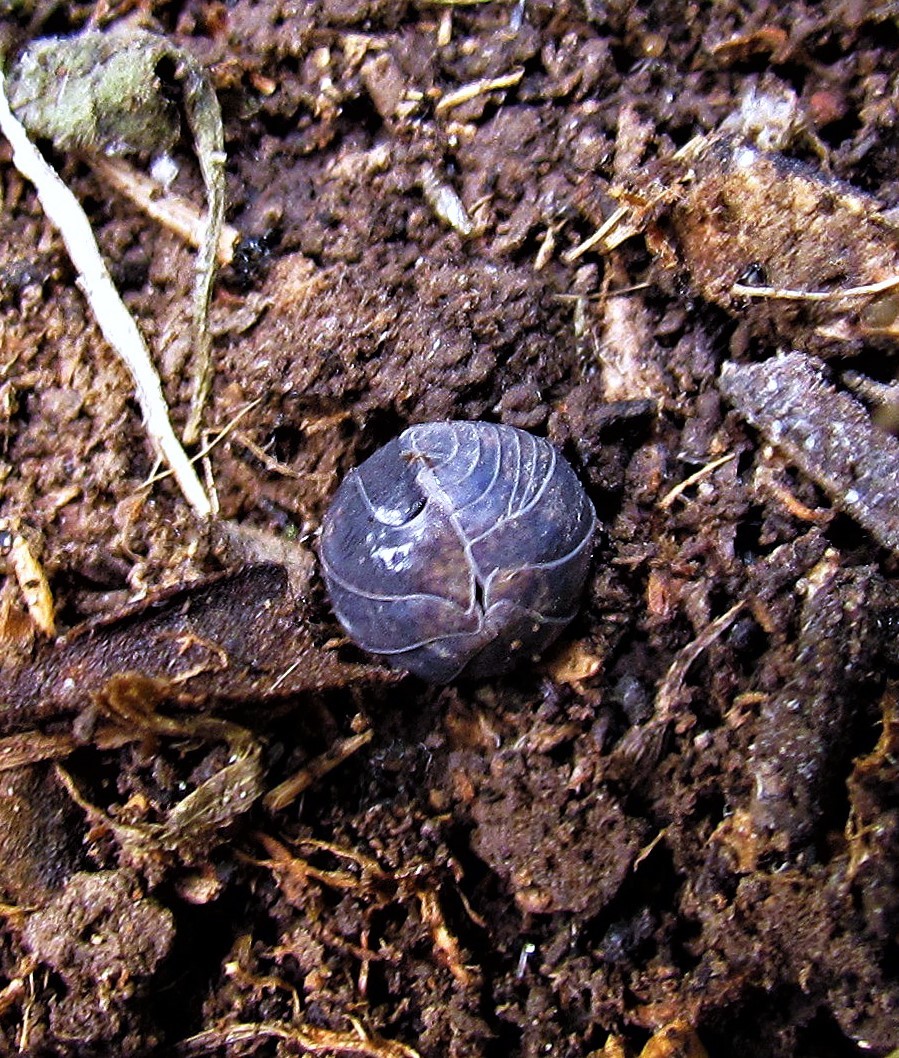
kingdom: Animalia
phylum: Arthropoda
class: Malacostraca
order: Isopoda
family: Armadillidiidae
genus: Armadillidium
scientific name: Armadillidium vulgare
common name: Common pill woodlouse
